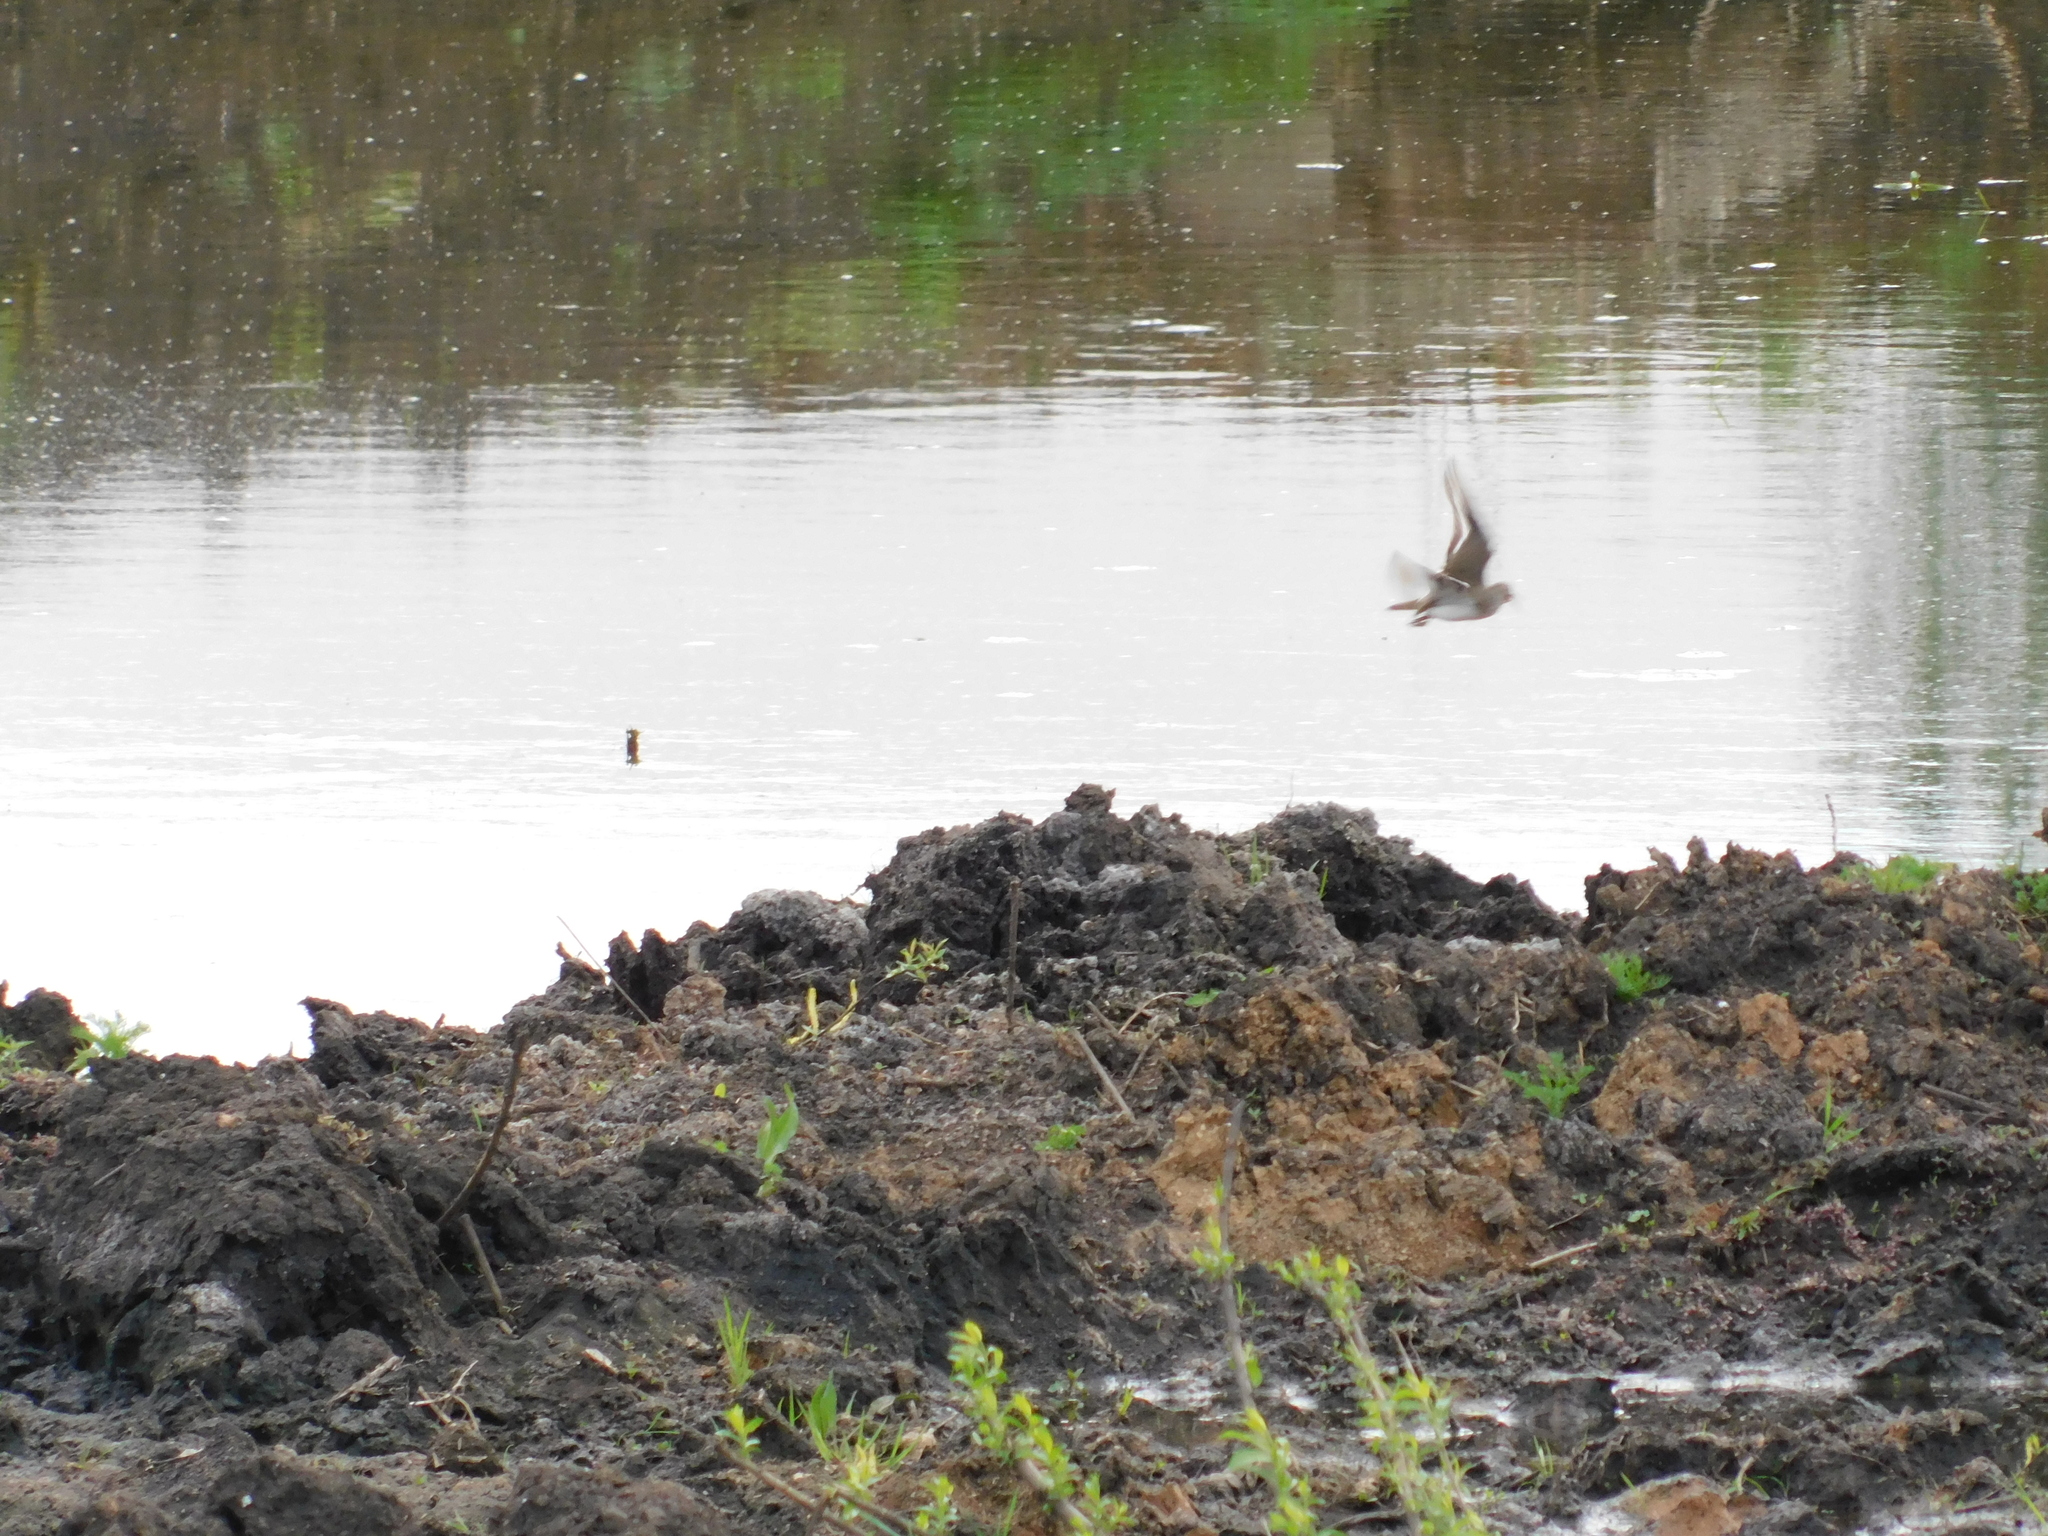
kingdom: Animalia
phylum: Chordata
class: Aves
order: Charadriiformes
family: Scolopacidae
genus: Actitis
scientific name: Actitis hypoleucos
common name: Common sandpiper
